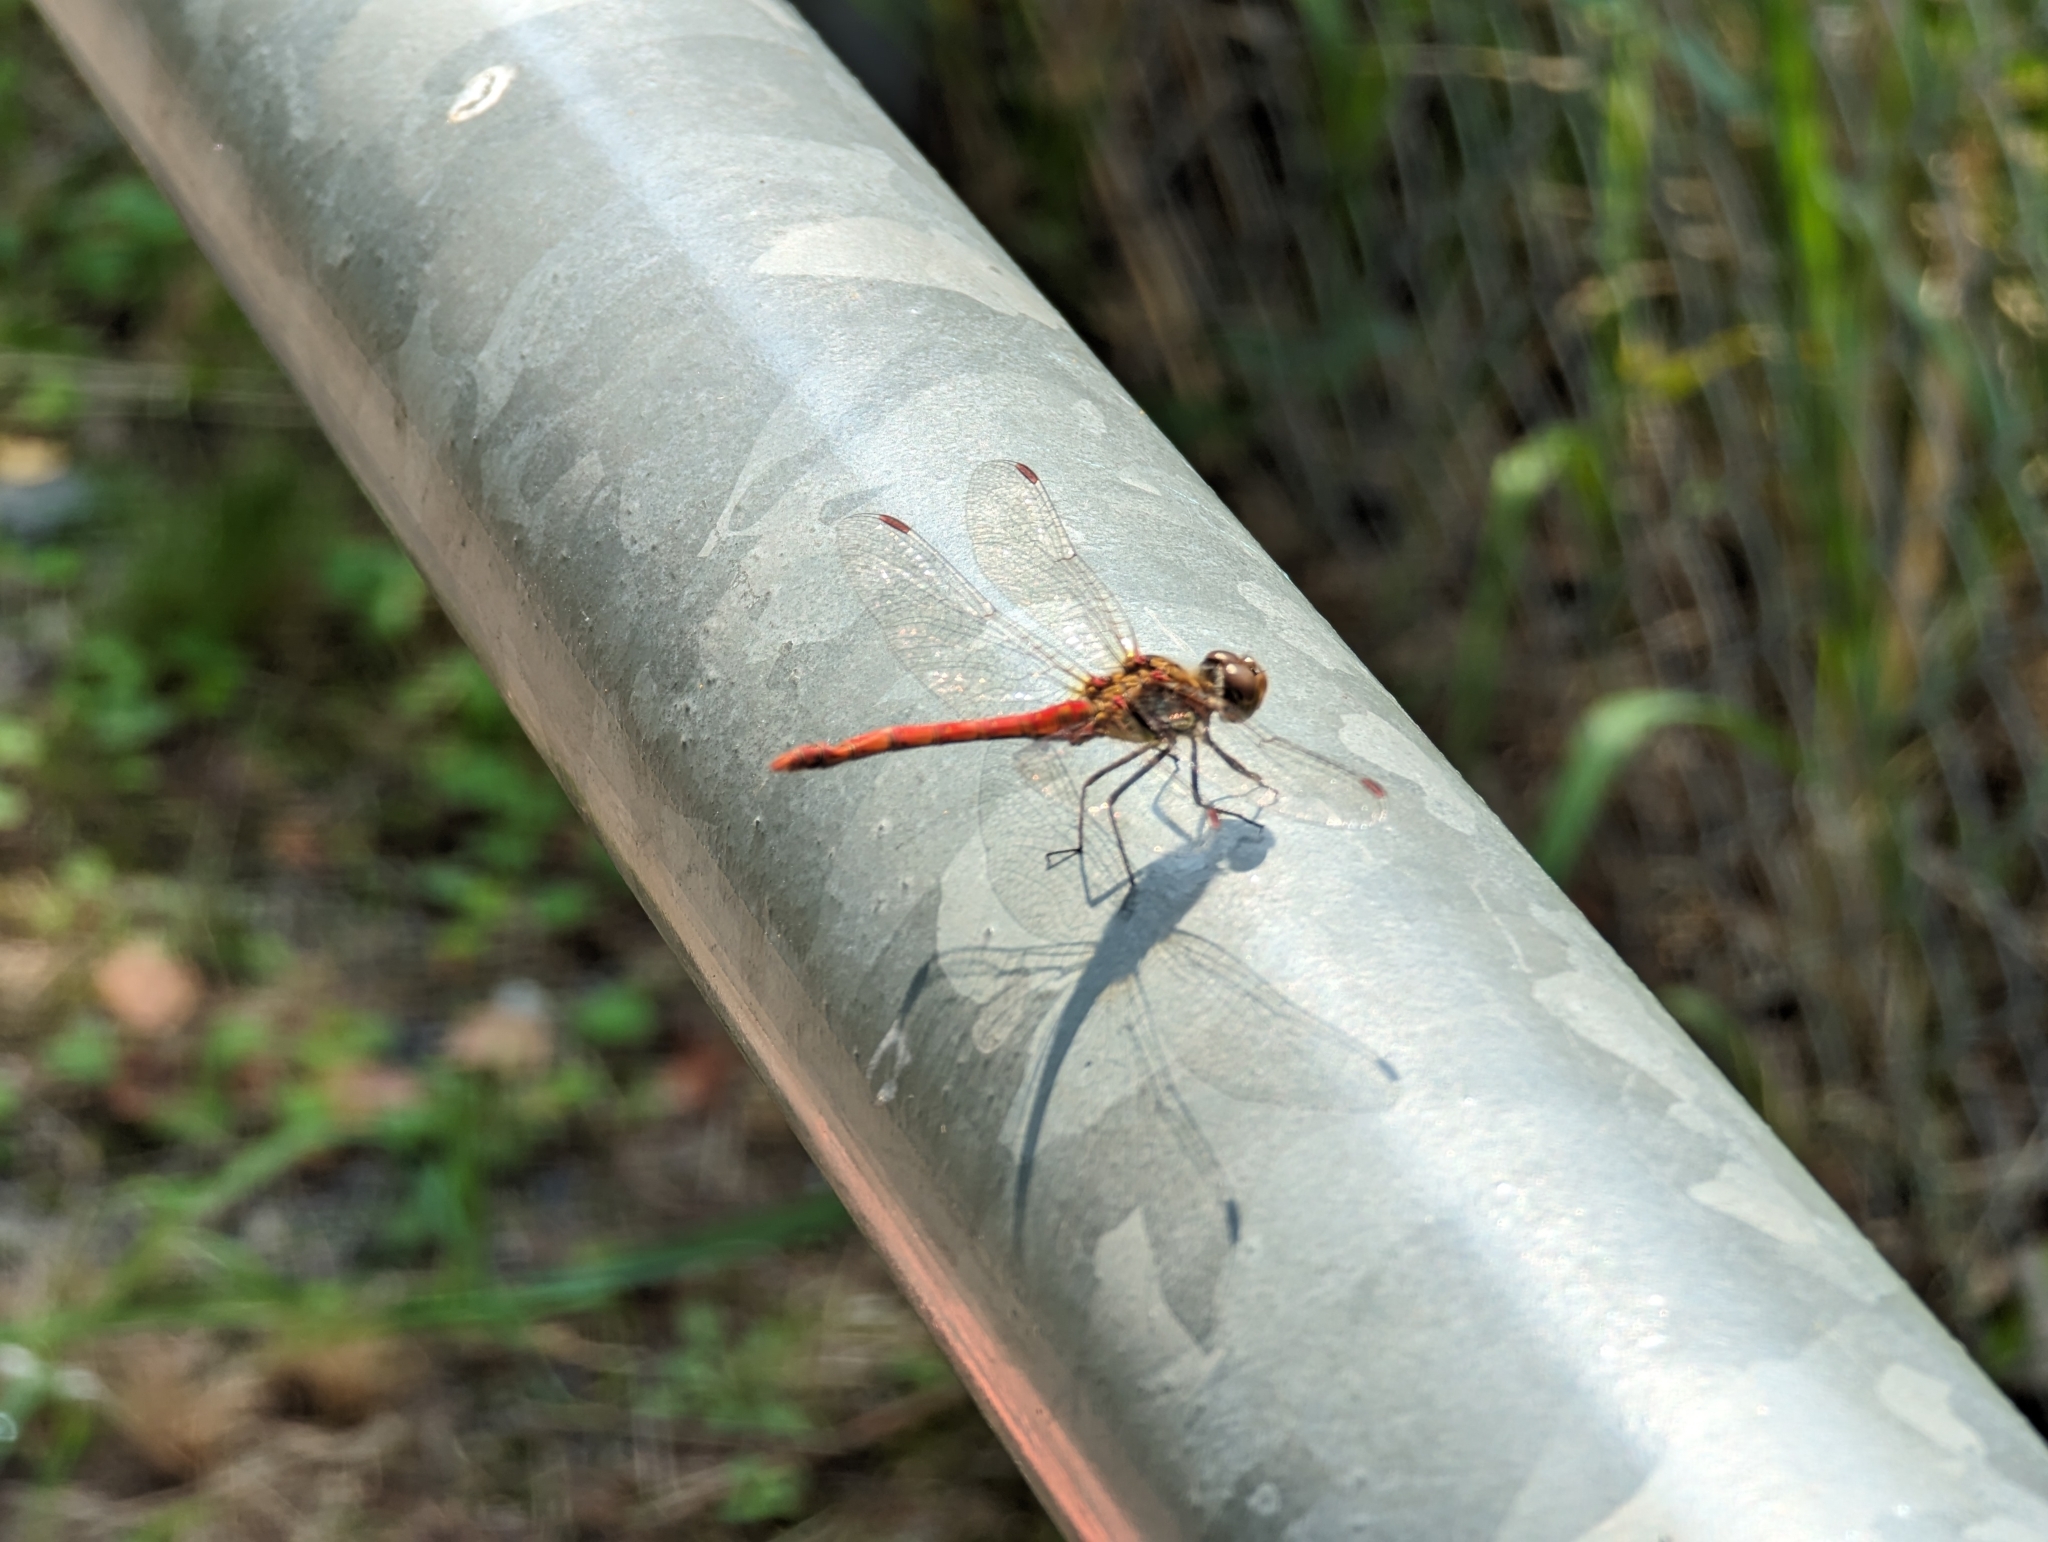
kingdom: Animalia
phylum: Arthropoda
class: Insecta
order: Odonata
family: Libellulidae
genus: Sympetrum
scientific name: Sympetrum sanguineum
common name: Ruddy darter
